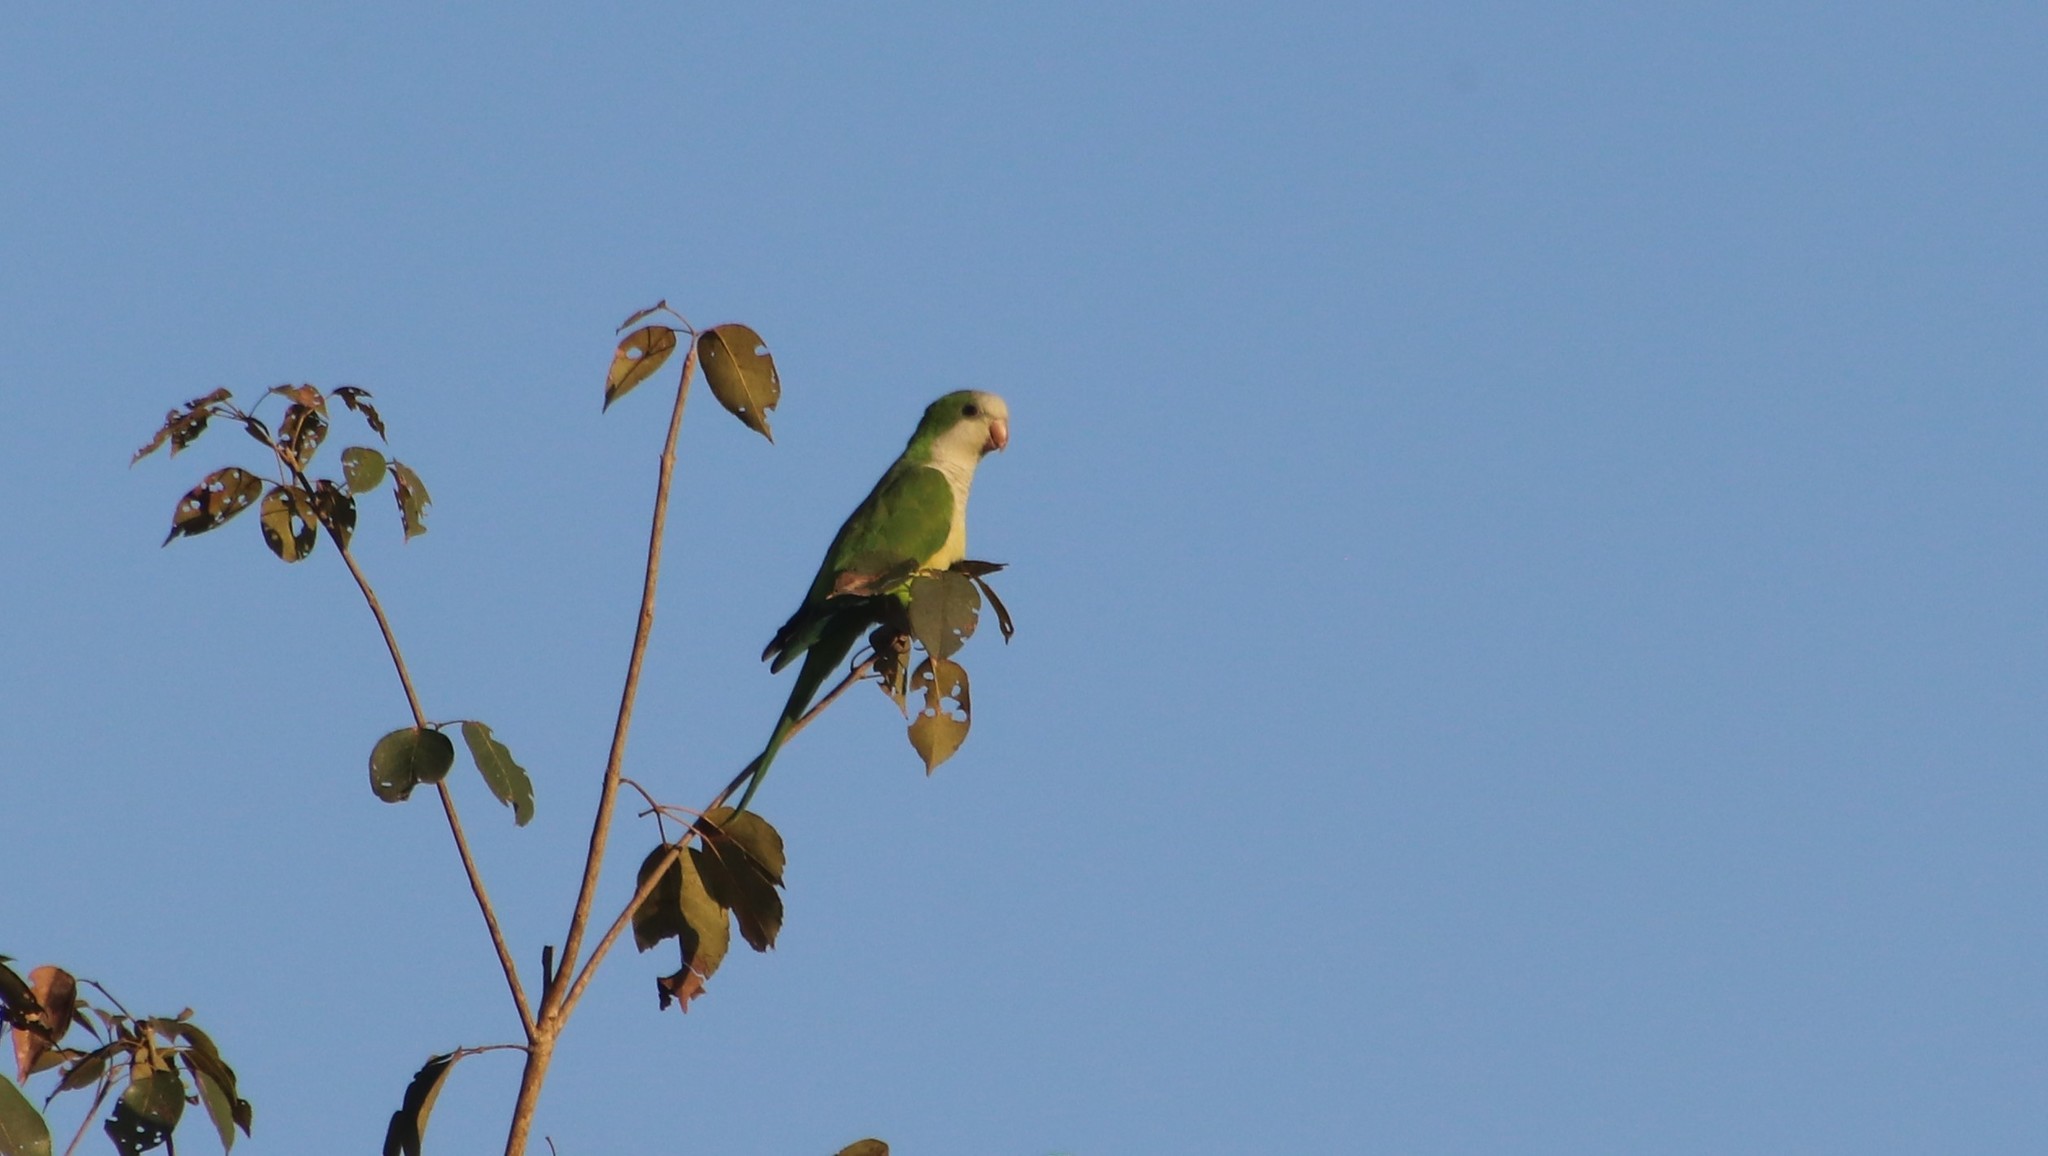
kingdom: Animalia
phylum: Chordata
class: Aves
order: Psittaciformes
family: Psittacidae
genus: Myiopsitta
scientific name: Myiopsitta monachus
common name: Monk parakeet
